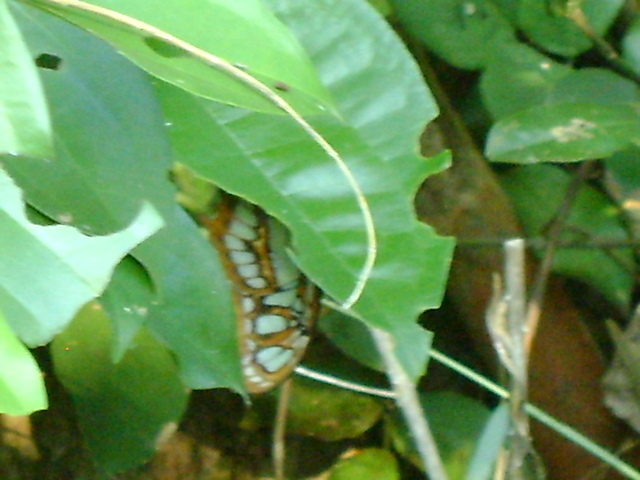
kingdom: Animalia
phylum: Arthropoda
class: Insecta
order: Lepidoptera
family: Nymphalidae
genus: Siproeta
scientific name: Siproeta stelenes
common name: Malachite
